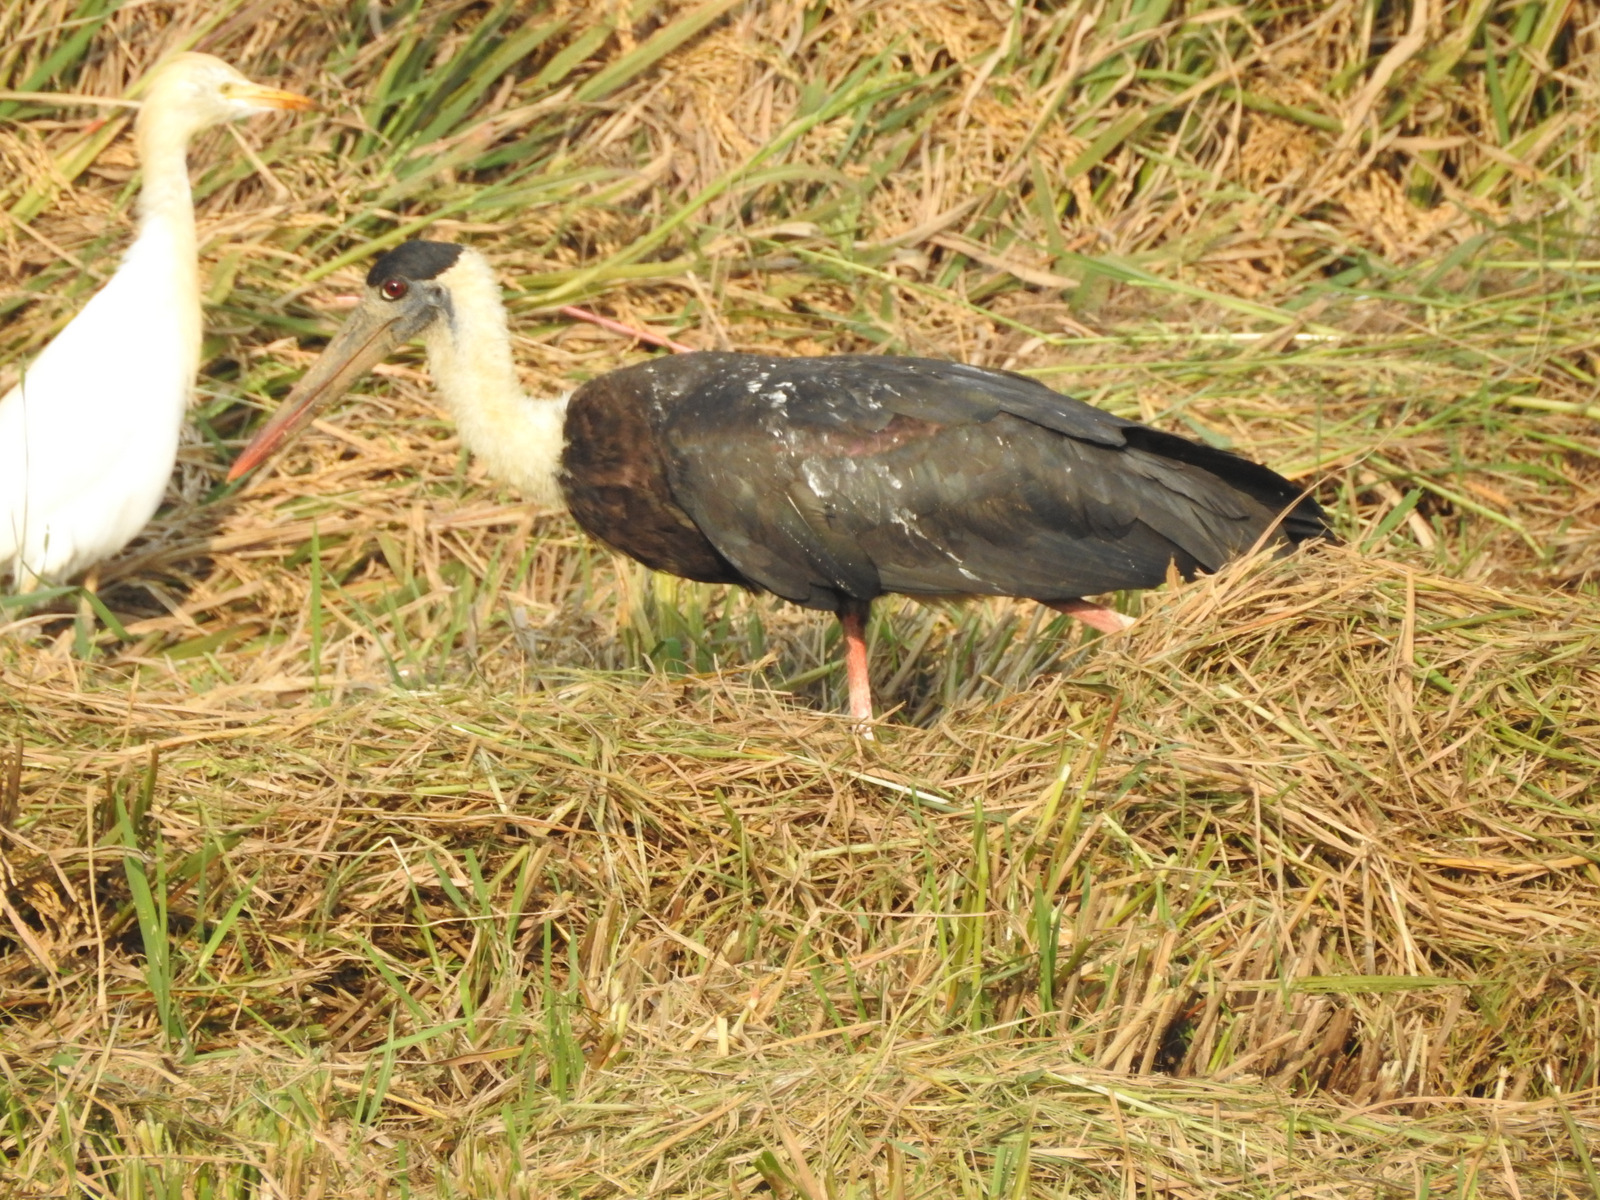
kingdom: Animalia
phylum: Chordata
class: Aves
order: Ciconiiformes
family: Ciconiidae
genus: Ciconia
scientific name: Ciconia episcopus
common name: Woolly-necked stork
